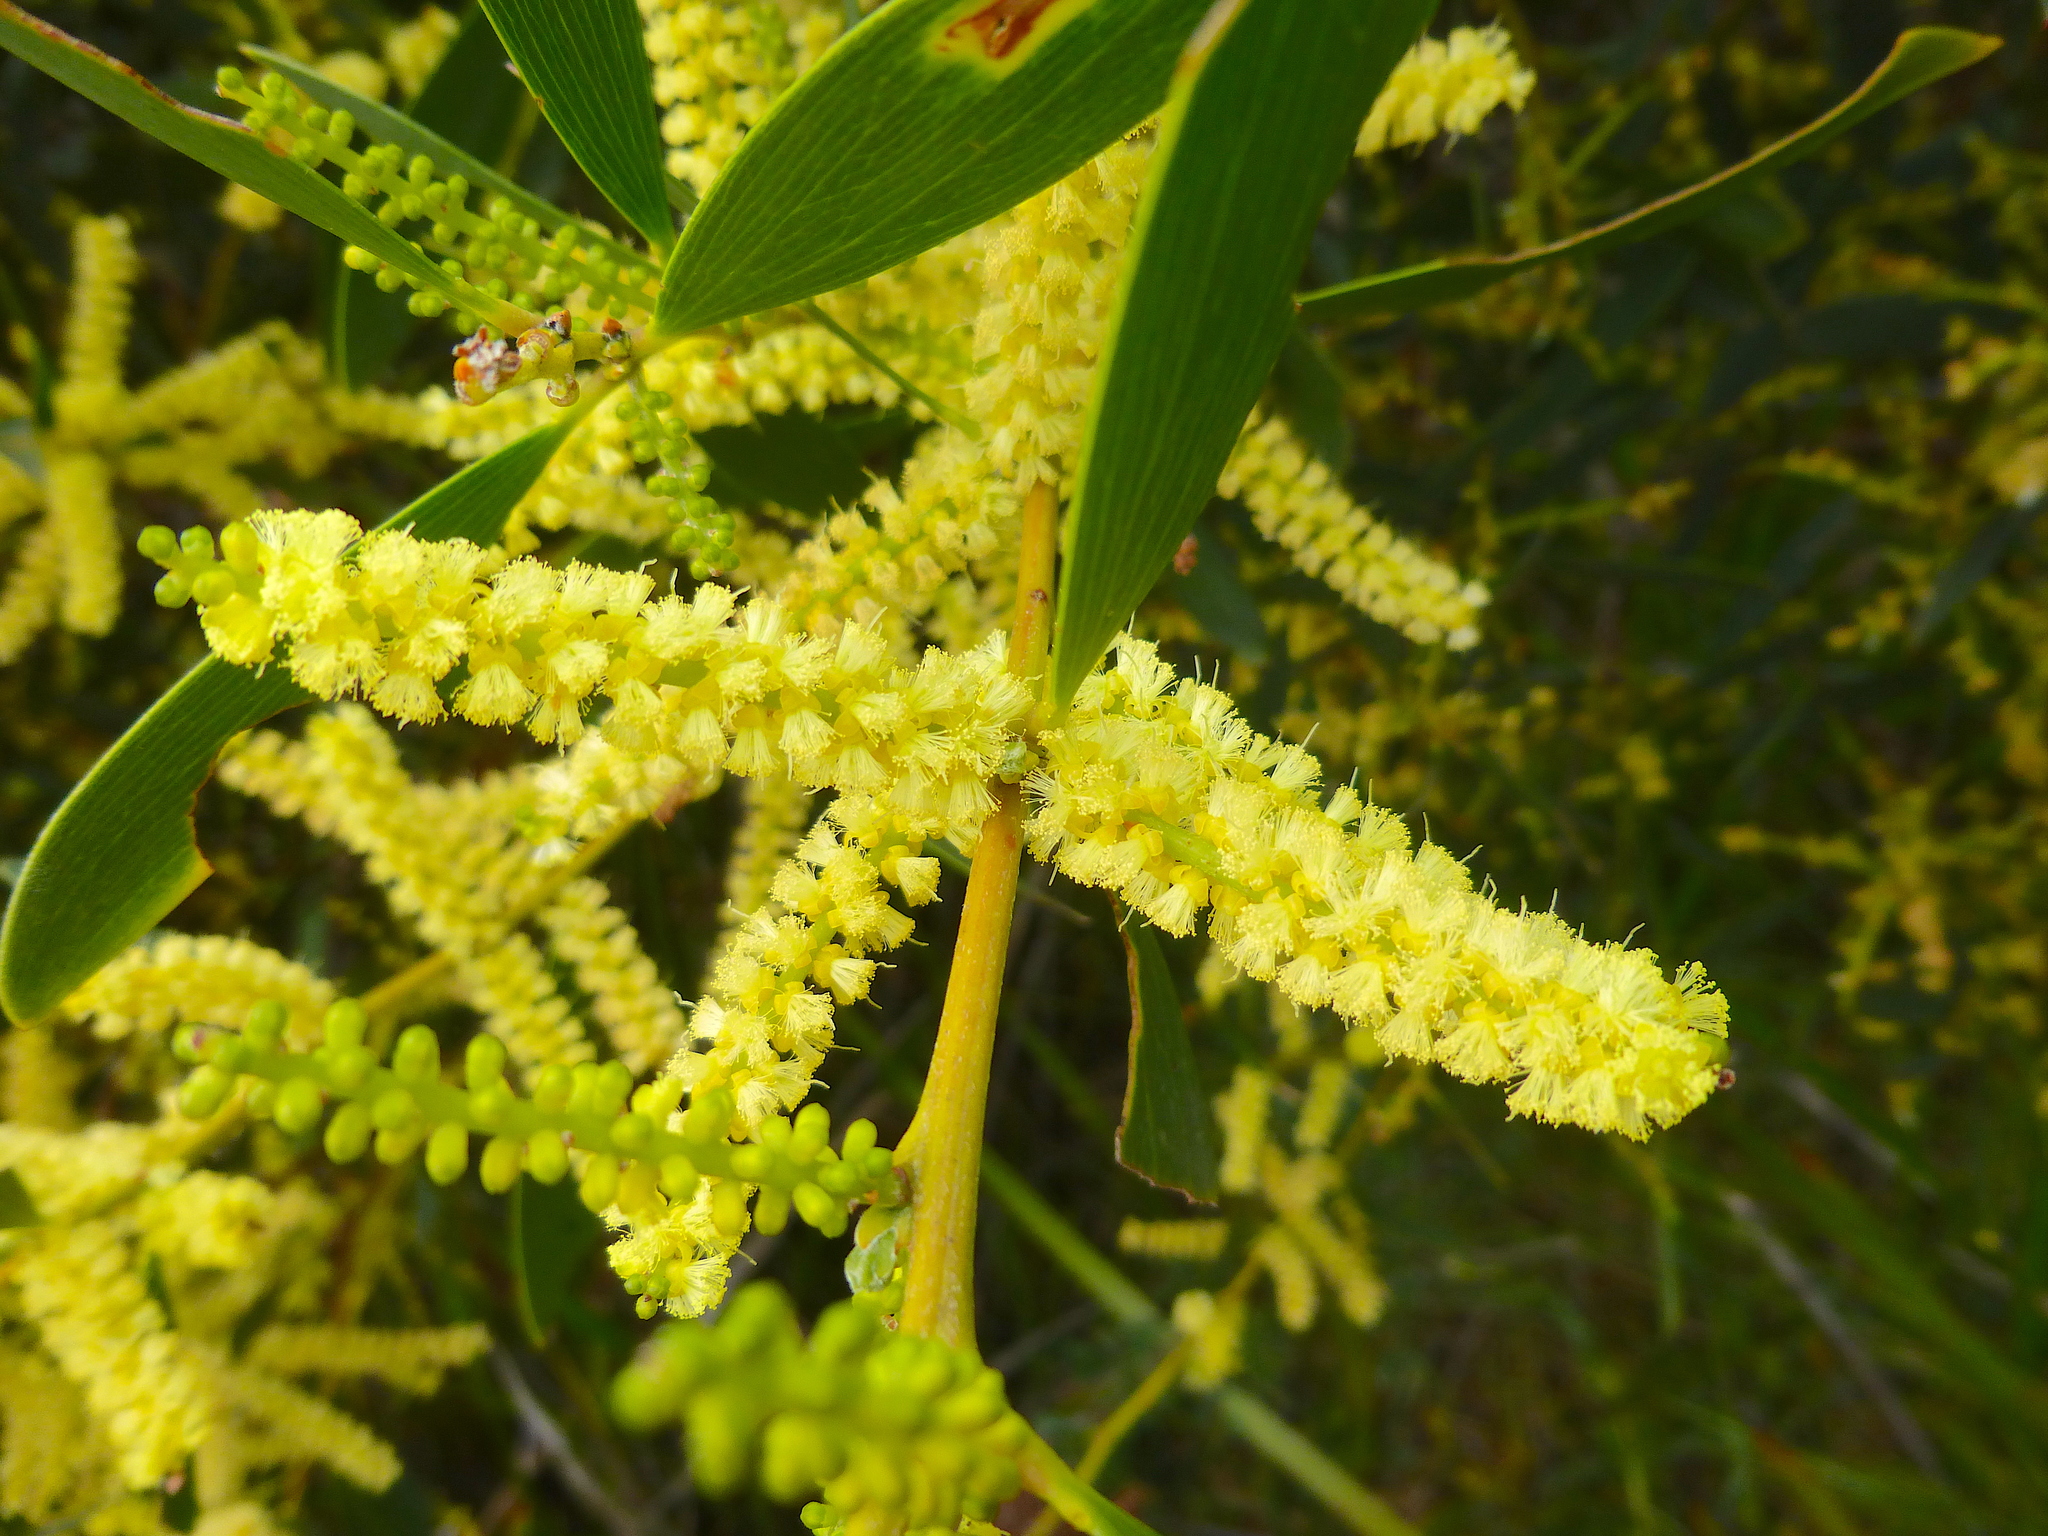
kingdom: Plantae
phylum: Tracheophyta
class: Magnoliopsida
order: Fabales
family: Fabaceae
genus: Acacia
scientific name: Acacia longifolia
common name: Sydney golden wattle
